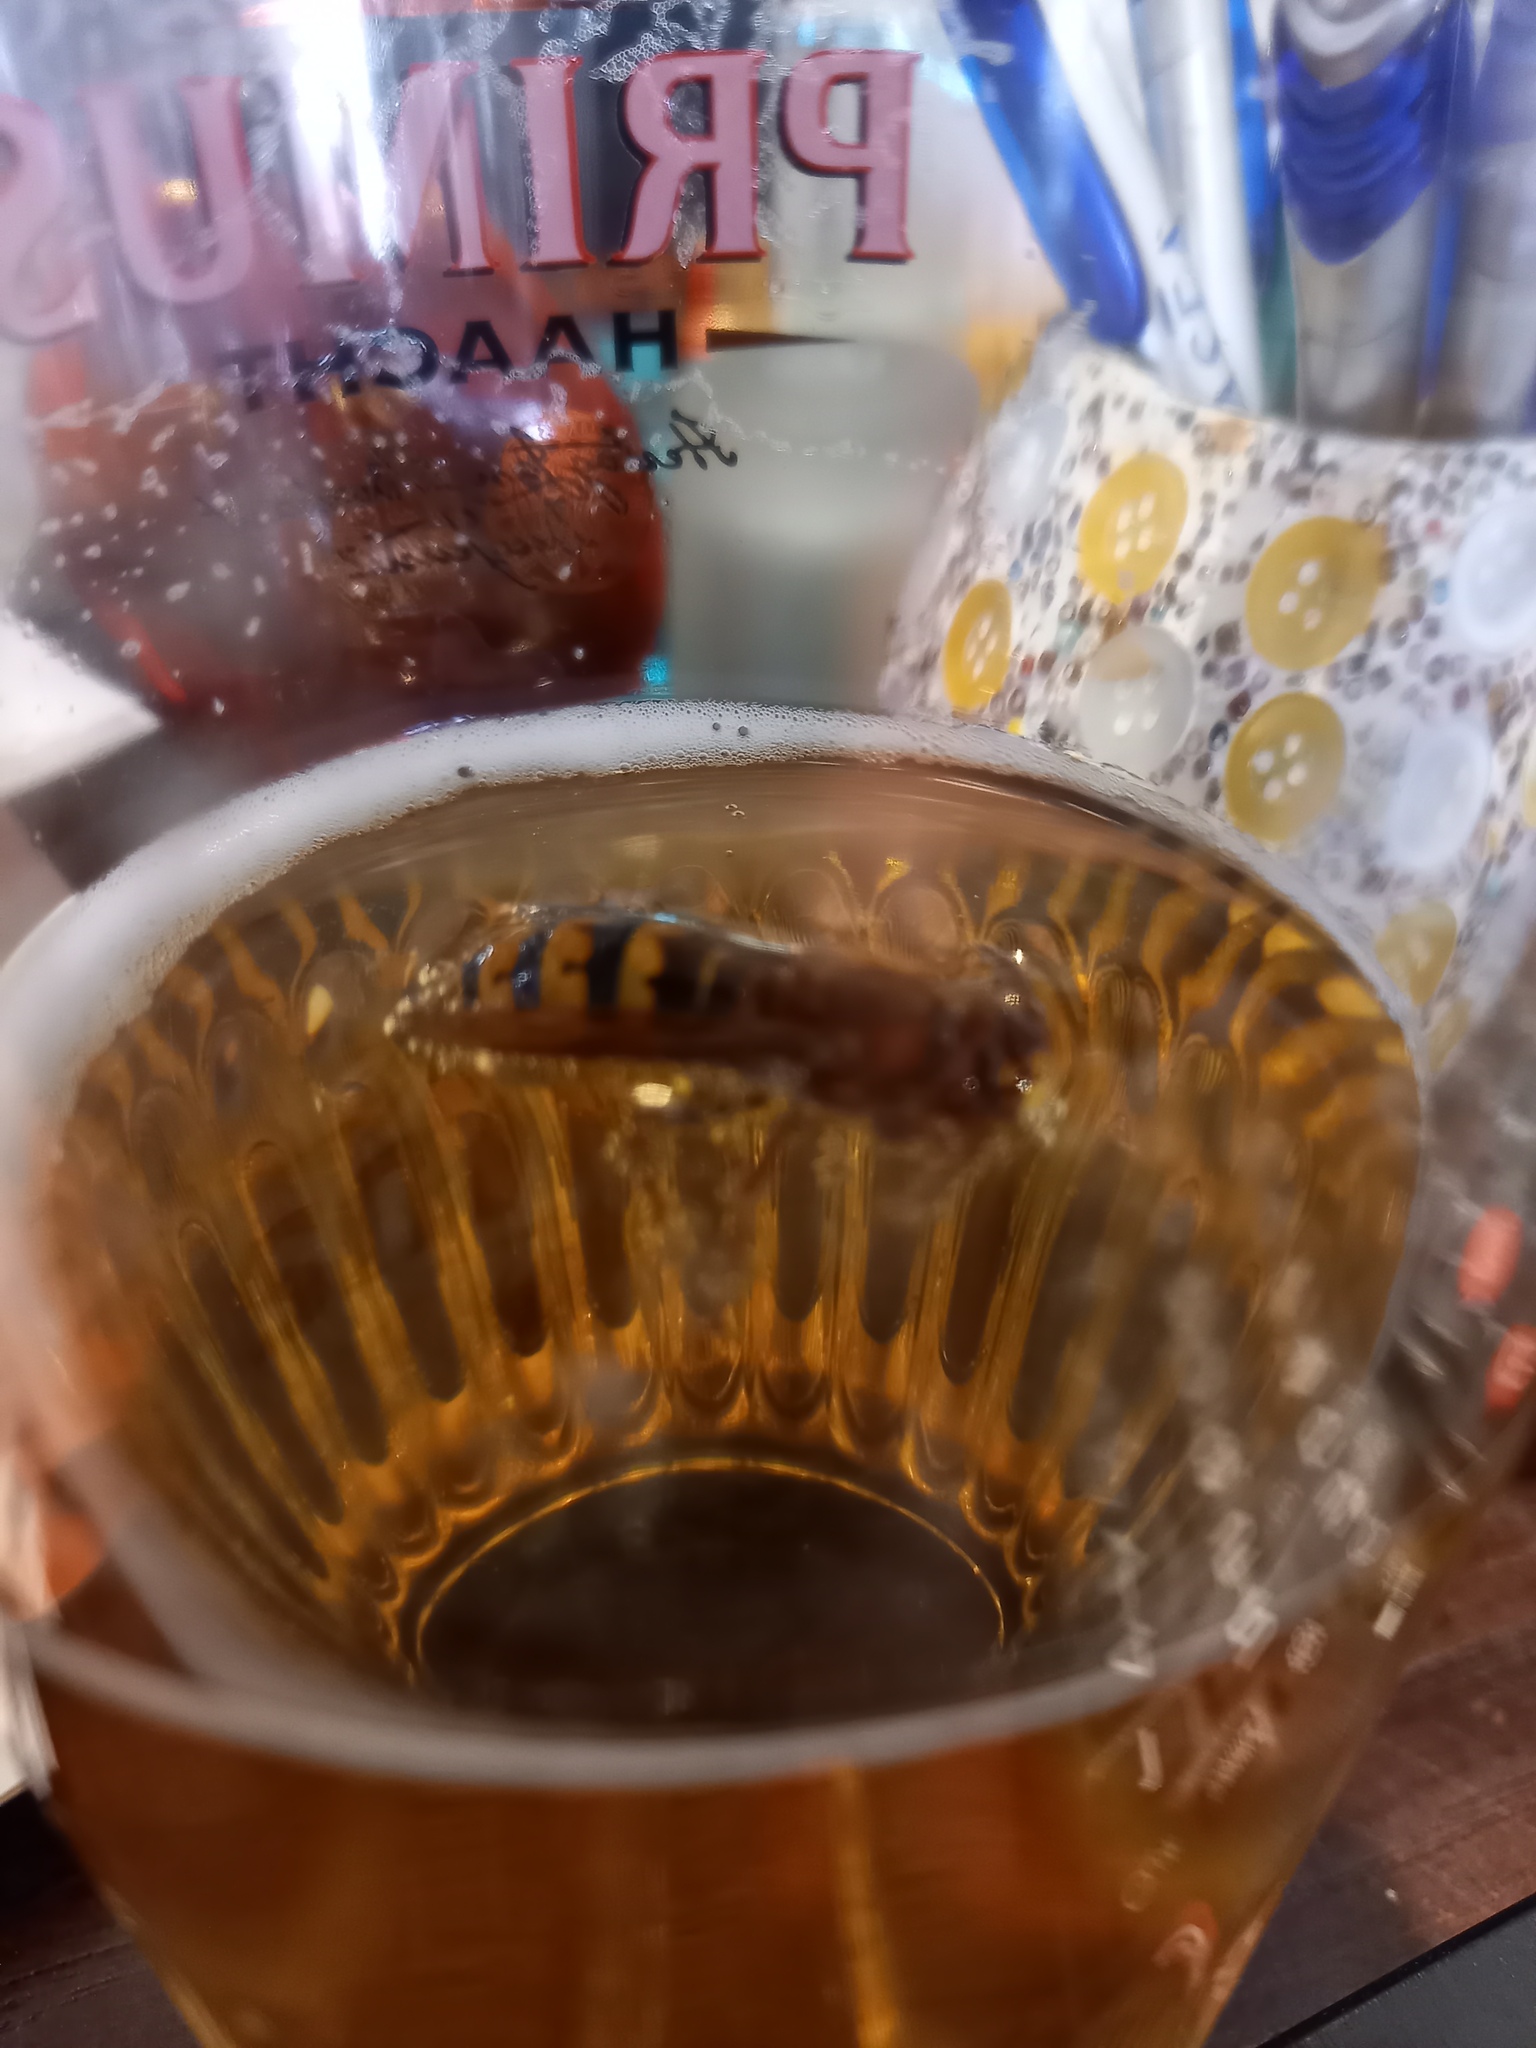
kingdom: Animalia
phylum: Arthropoda
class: Insecta
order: Hymenoptera
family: Vespidae
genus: Vespa
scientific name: Vespa crabro
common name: Hornet
